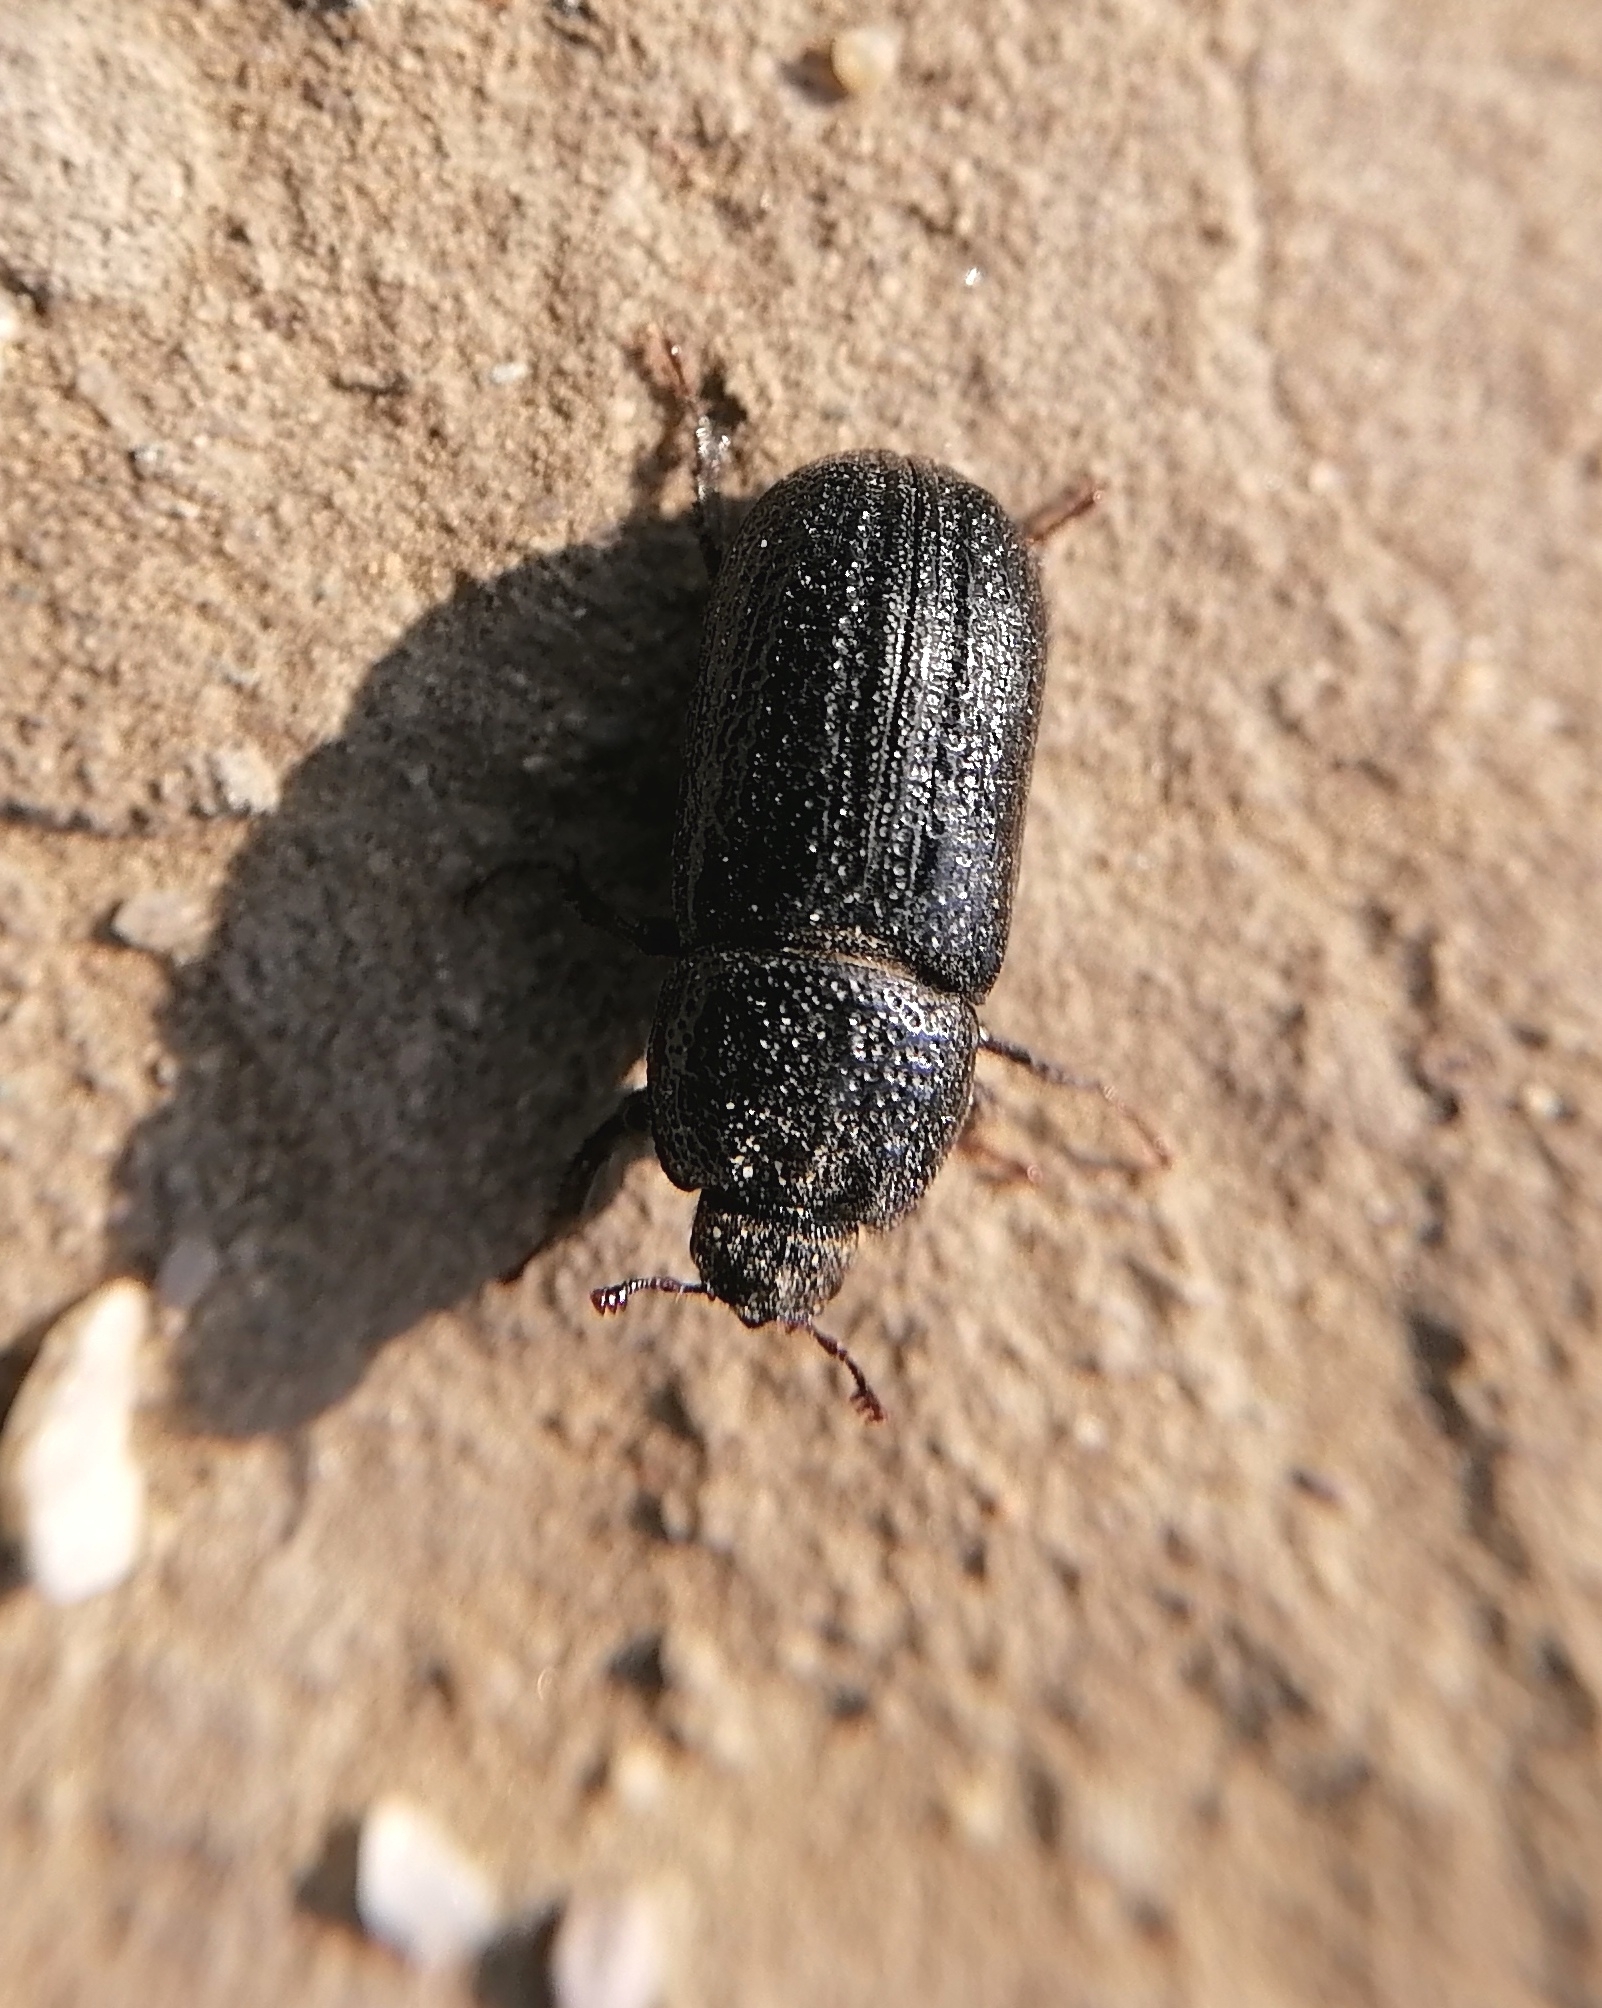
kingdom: Animalia
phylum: Arthropoda
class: Insecta
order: Coleoptera
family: Lucanidae
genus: Sinodendron
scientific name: Sinodendron cylindricum
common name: Rhinoceros beetle
